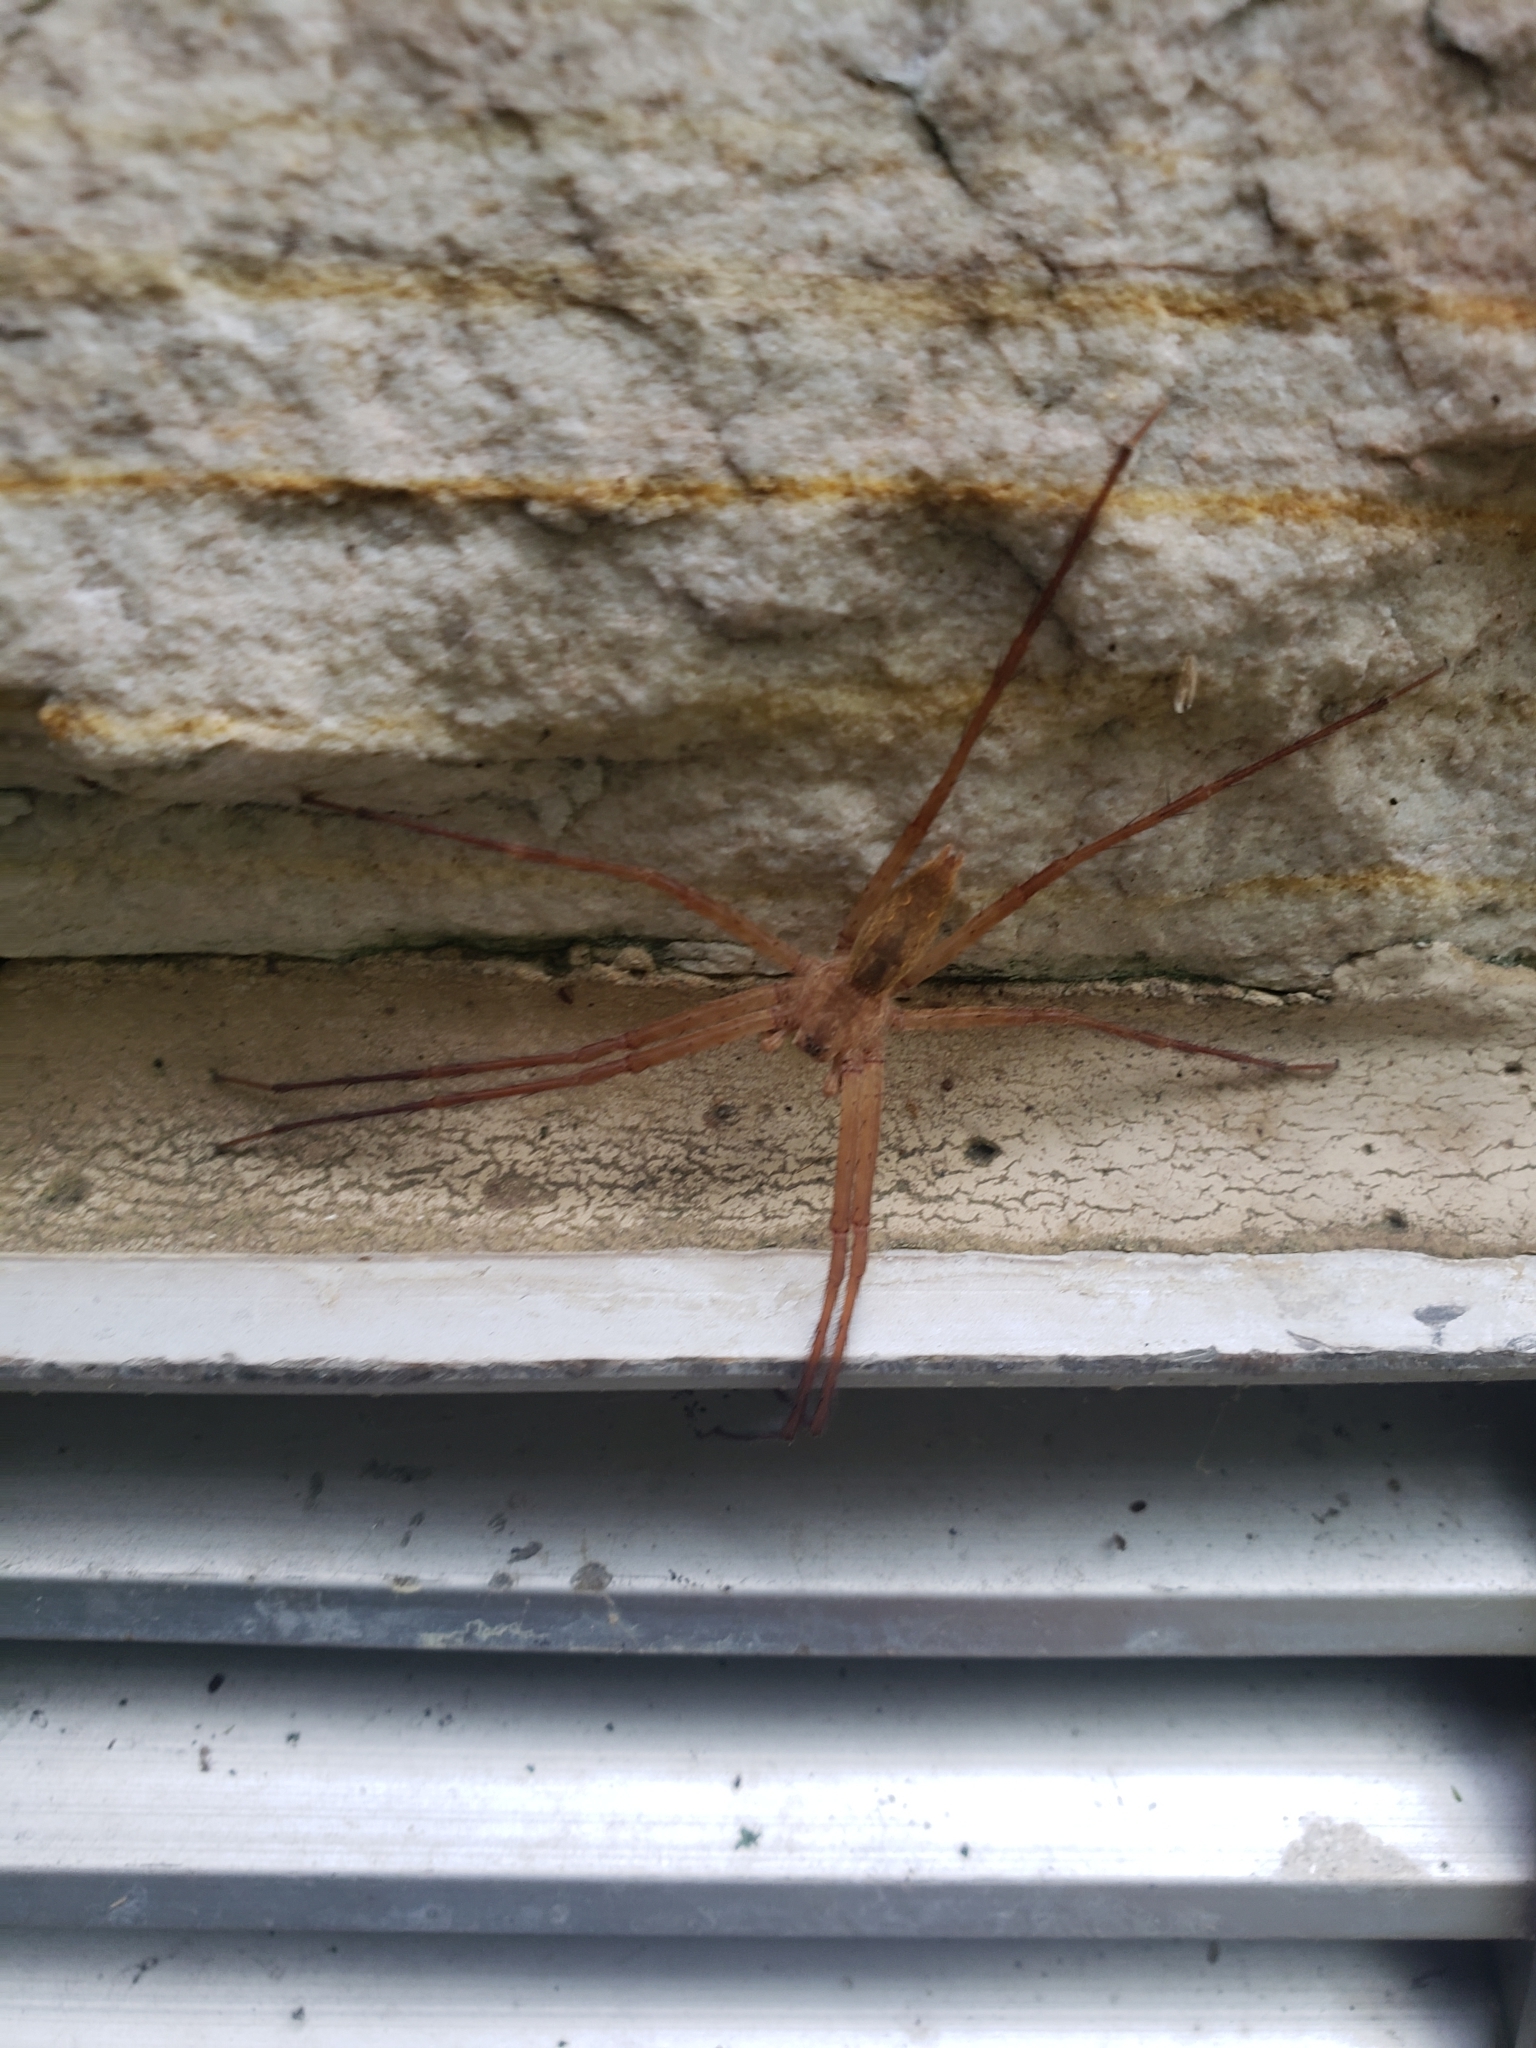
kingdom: Animalia
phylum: Arthropoda
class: Arachnida
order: Araneae
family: Pisauridae
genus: Pisaurina
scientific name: Pisaurina mira
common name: American nursery web spider
